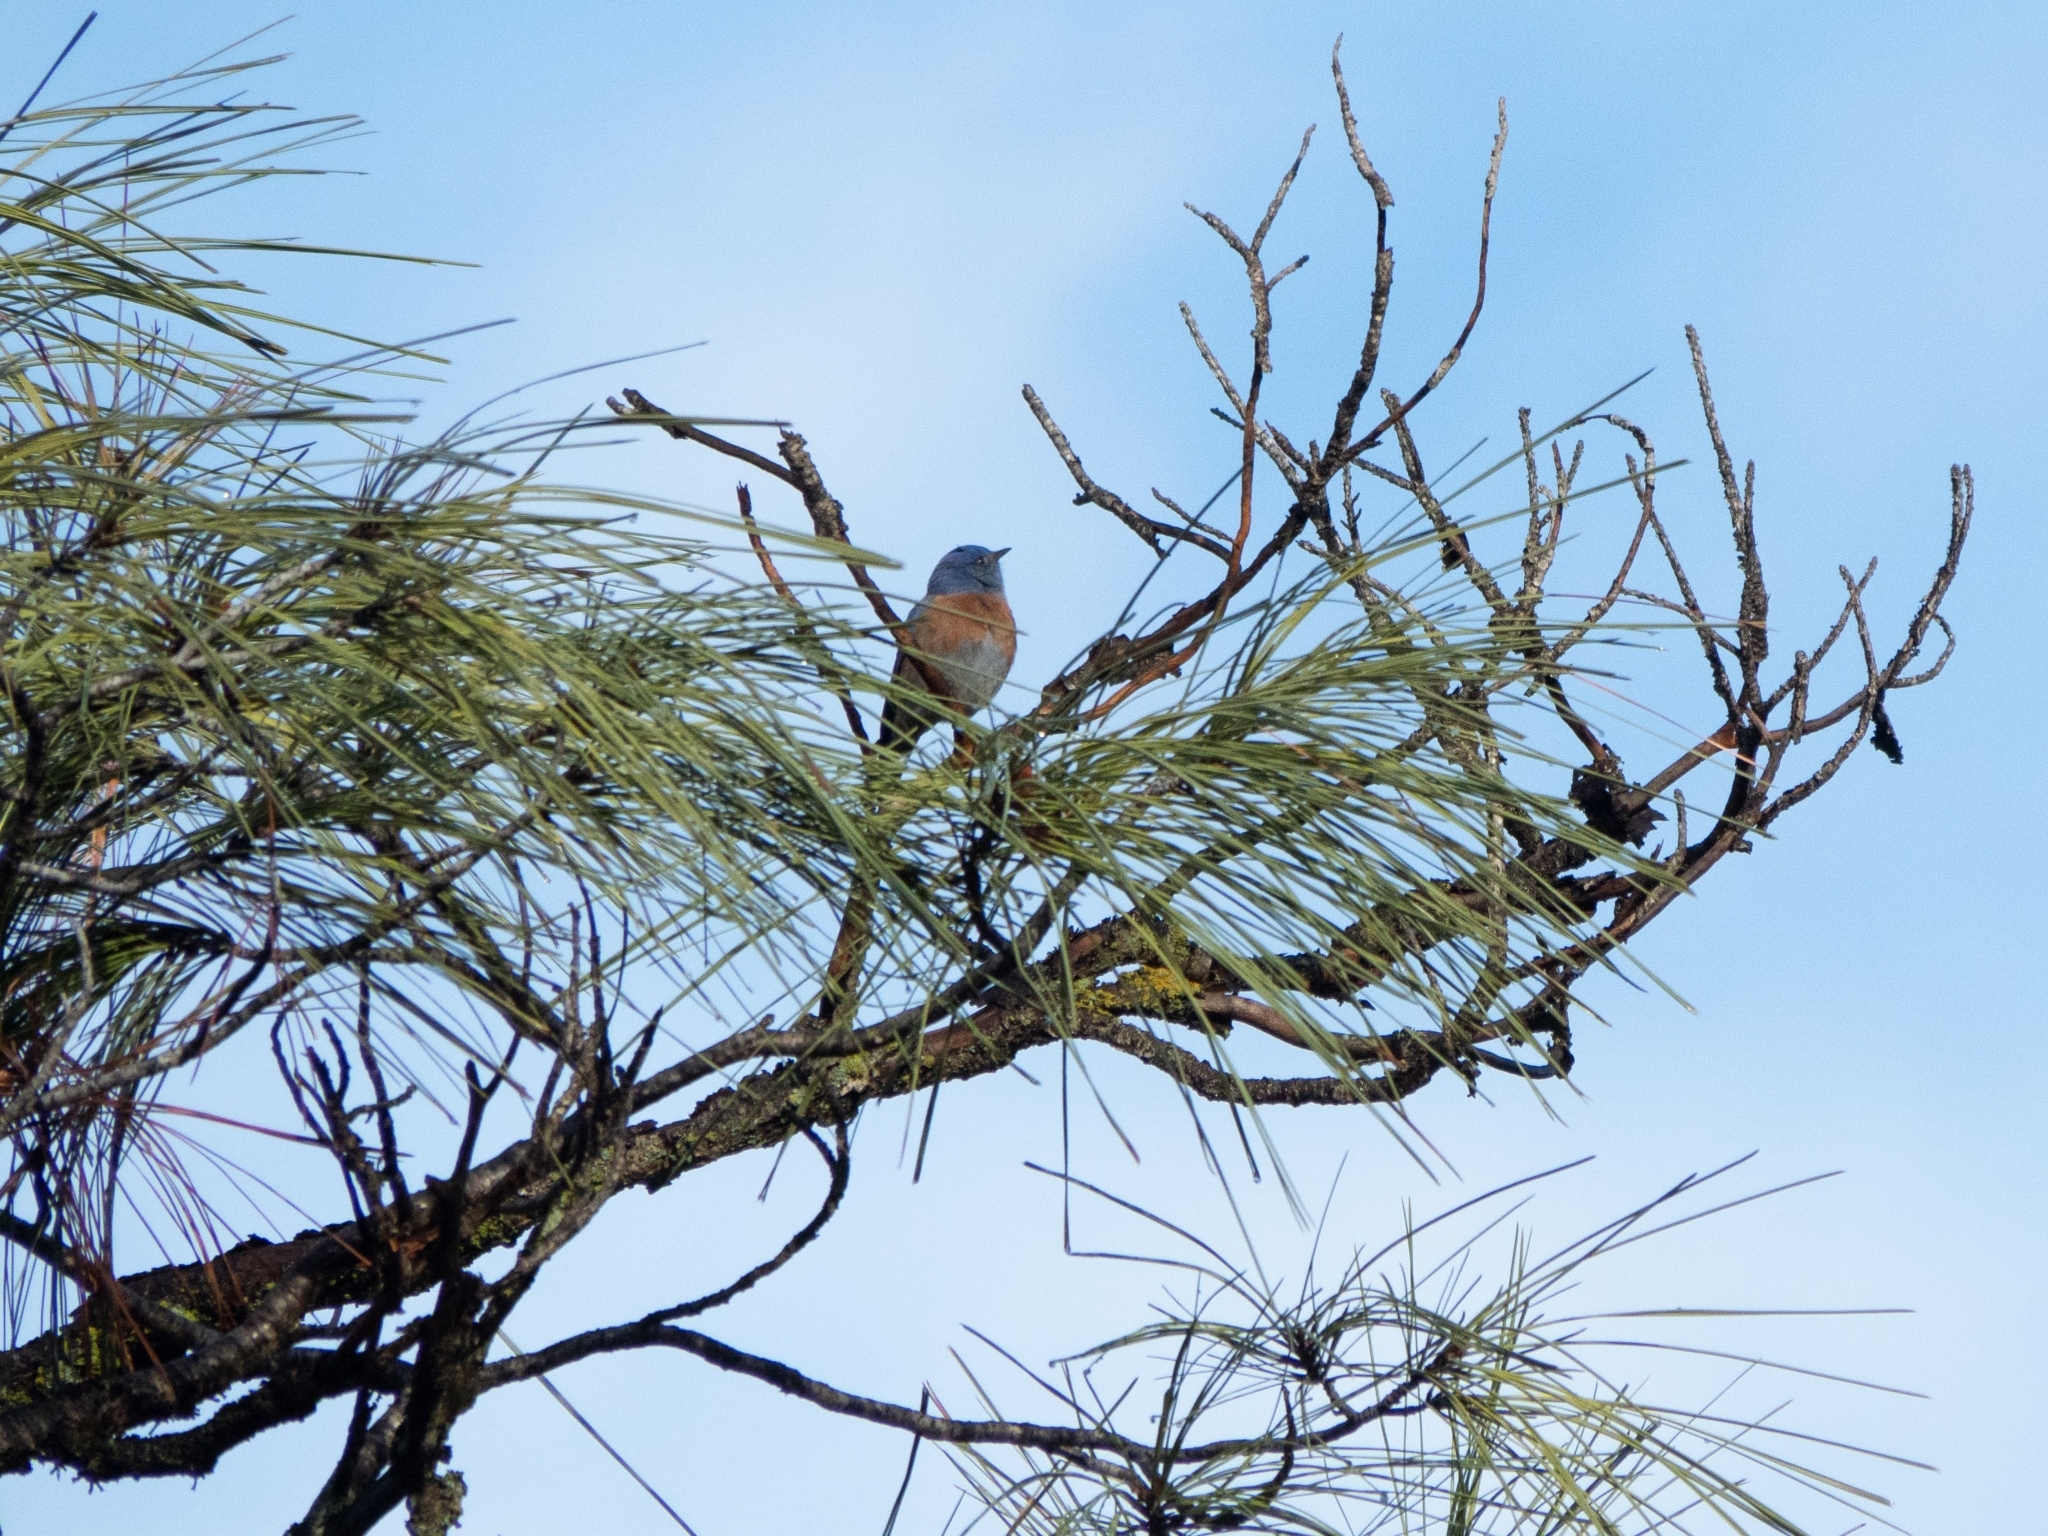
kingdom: Animalia
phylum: Chordata
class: Aves
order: Passeriformes
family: Turdidae
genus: Sialia
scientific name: Sialia mexicana
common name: Western bluebird
